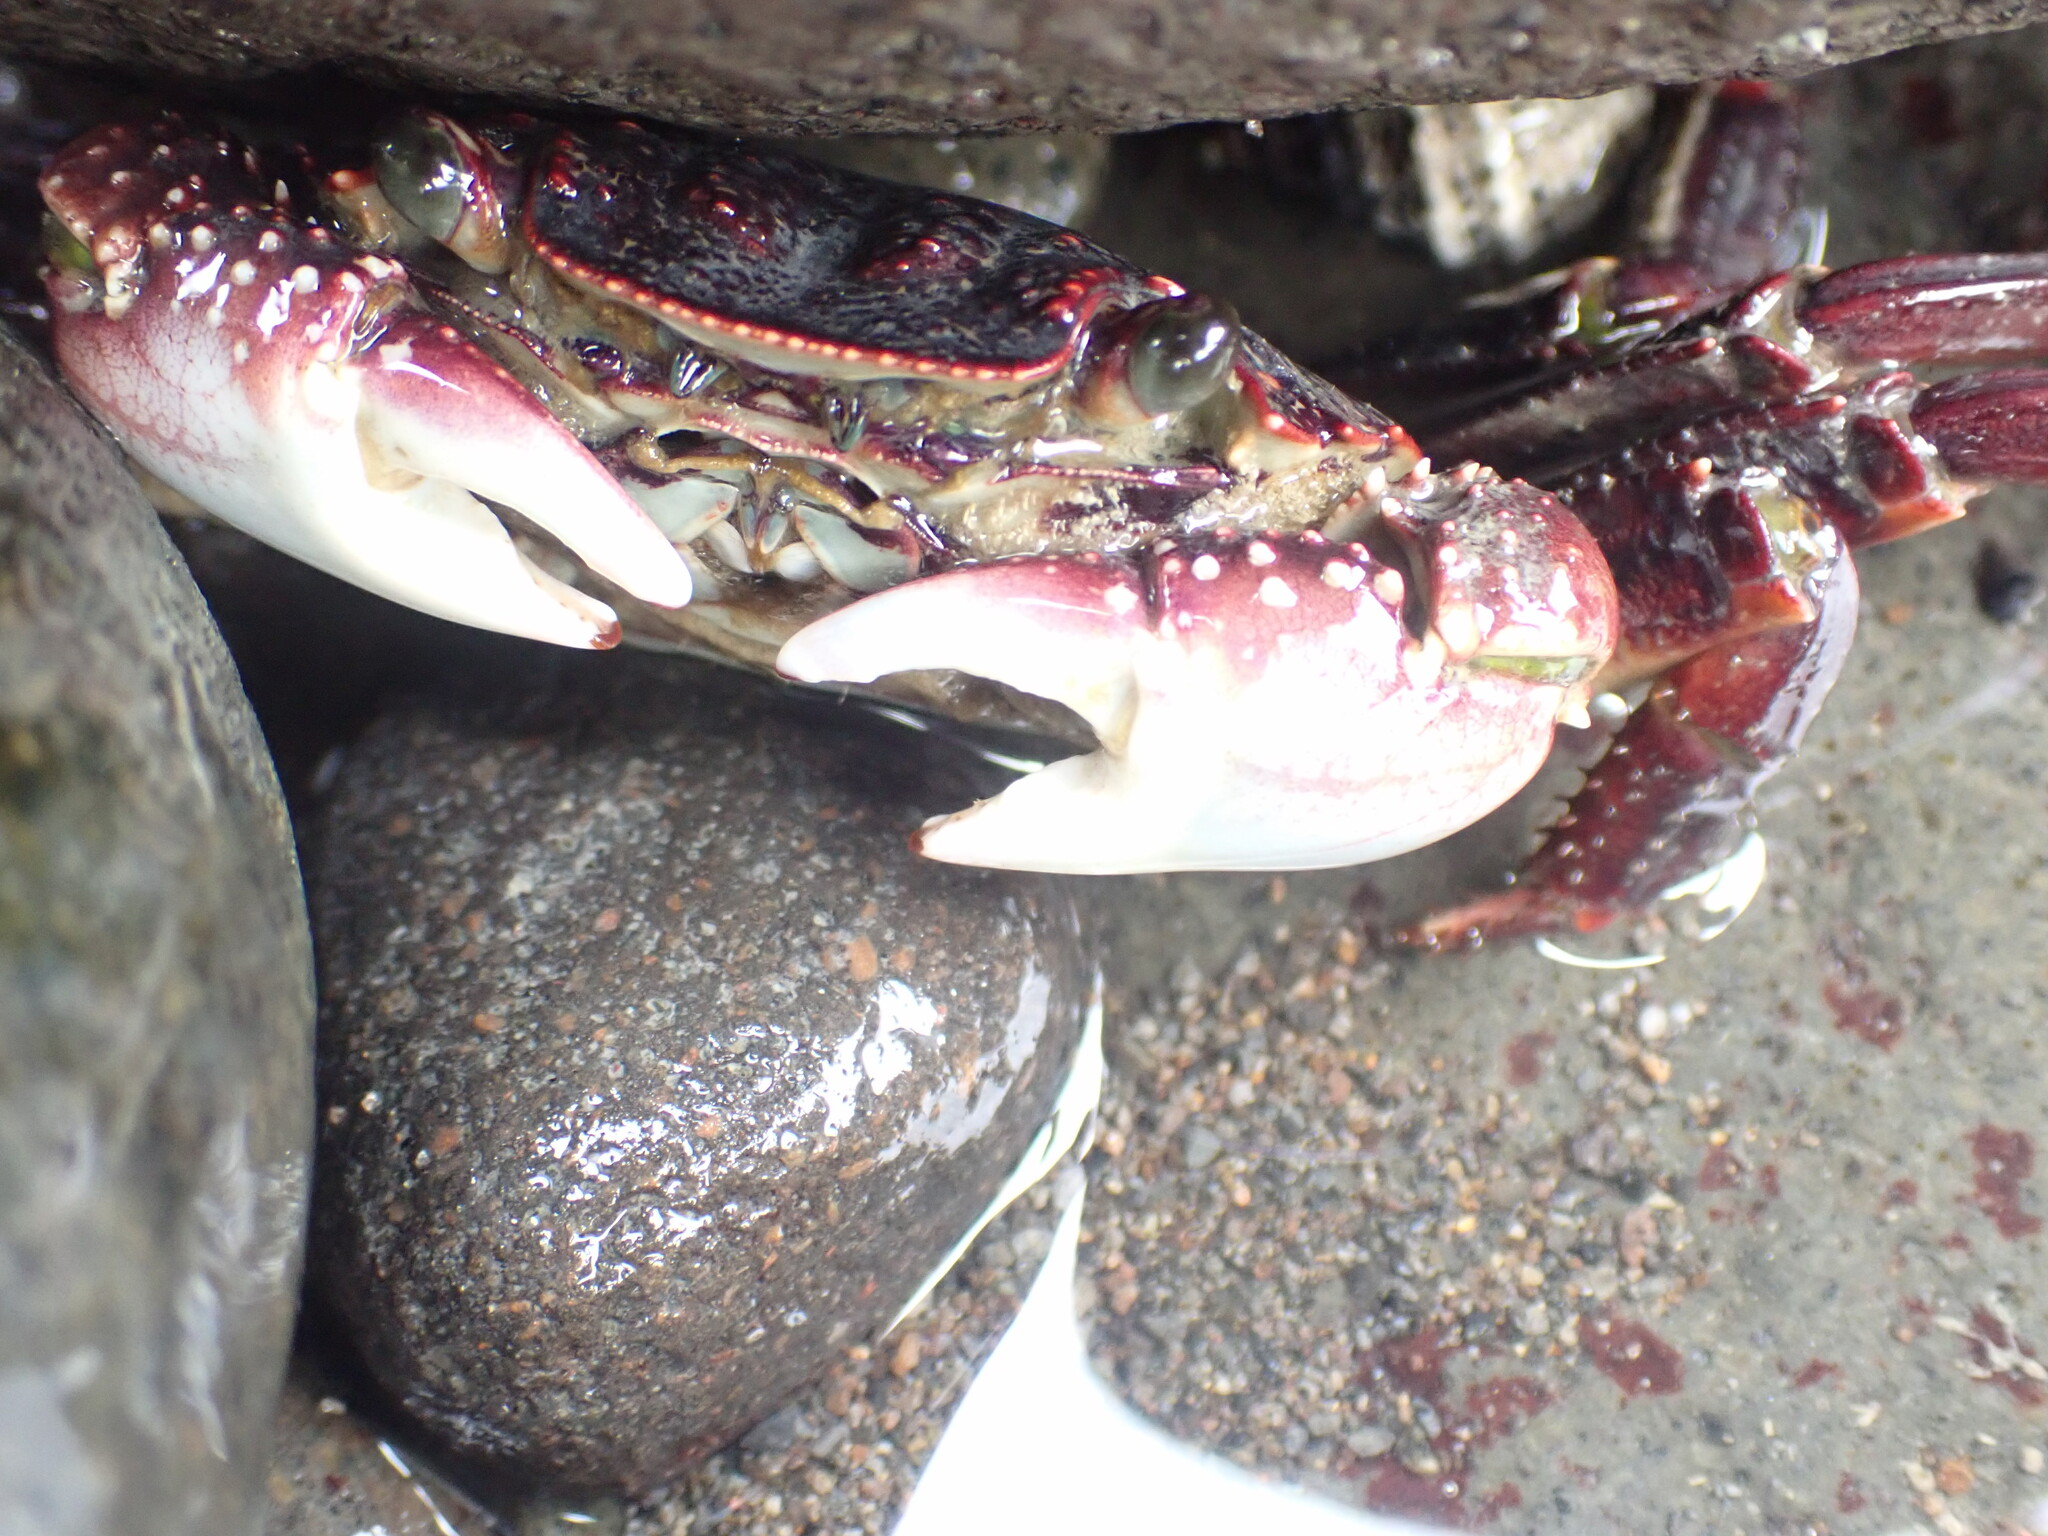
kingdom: Animalia
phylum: Arthropoda
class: Malacostraca
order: Decapoda
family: Grapsidae
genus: Leptograpsus
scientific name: Leptograpsus variegatus
